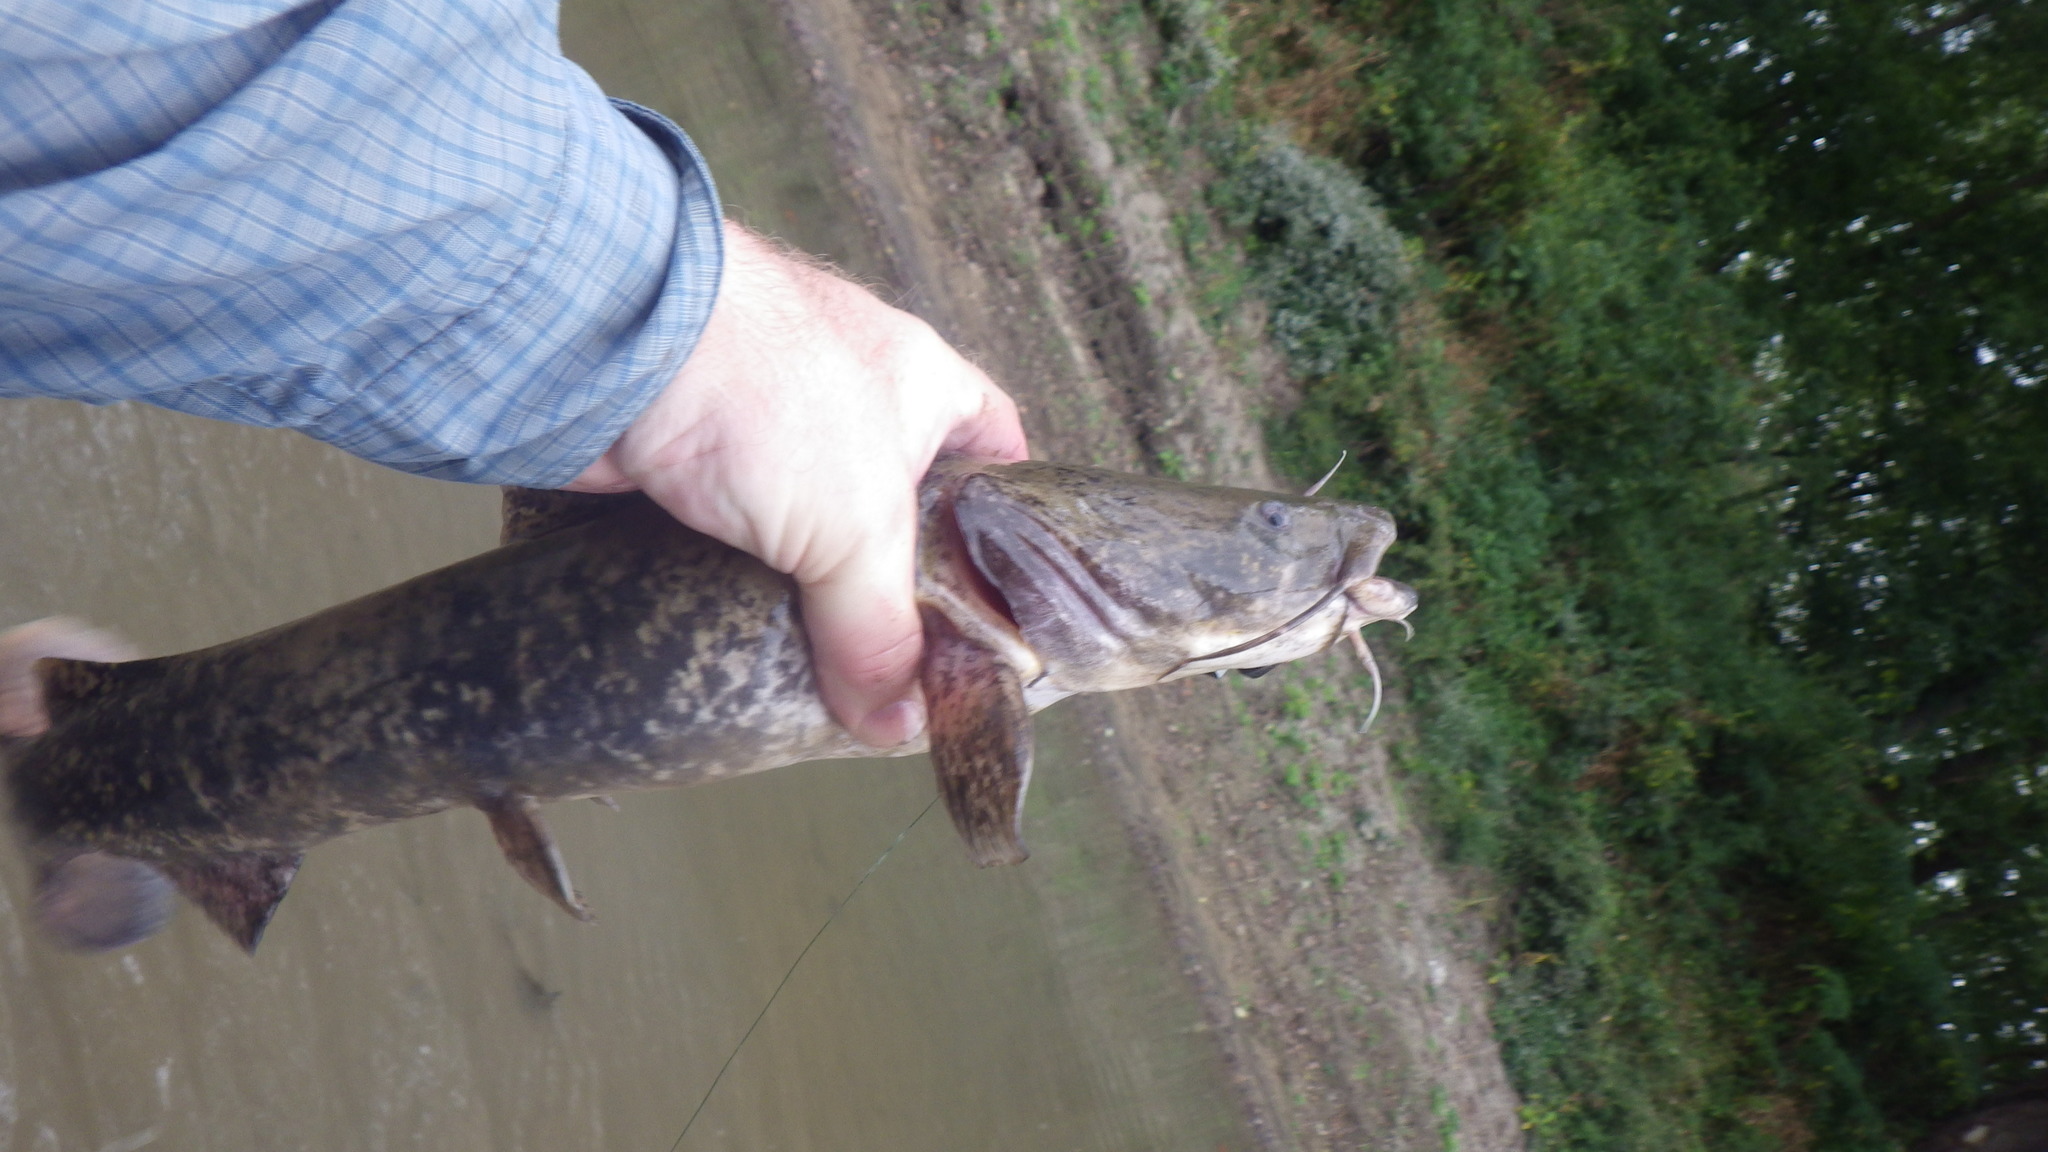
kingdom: Animalia
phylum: Chordata
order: Siluriformes
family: Ictaluridae
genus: Pylodictis
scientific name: Pylodictis olivaris
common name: Flathead catfish
